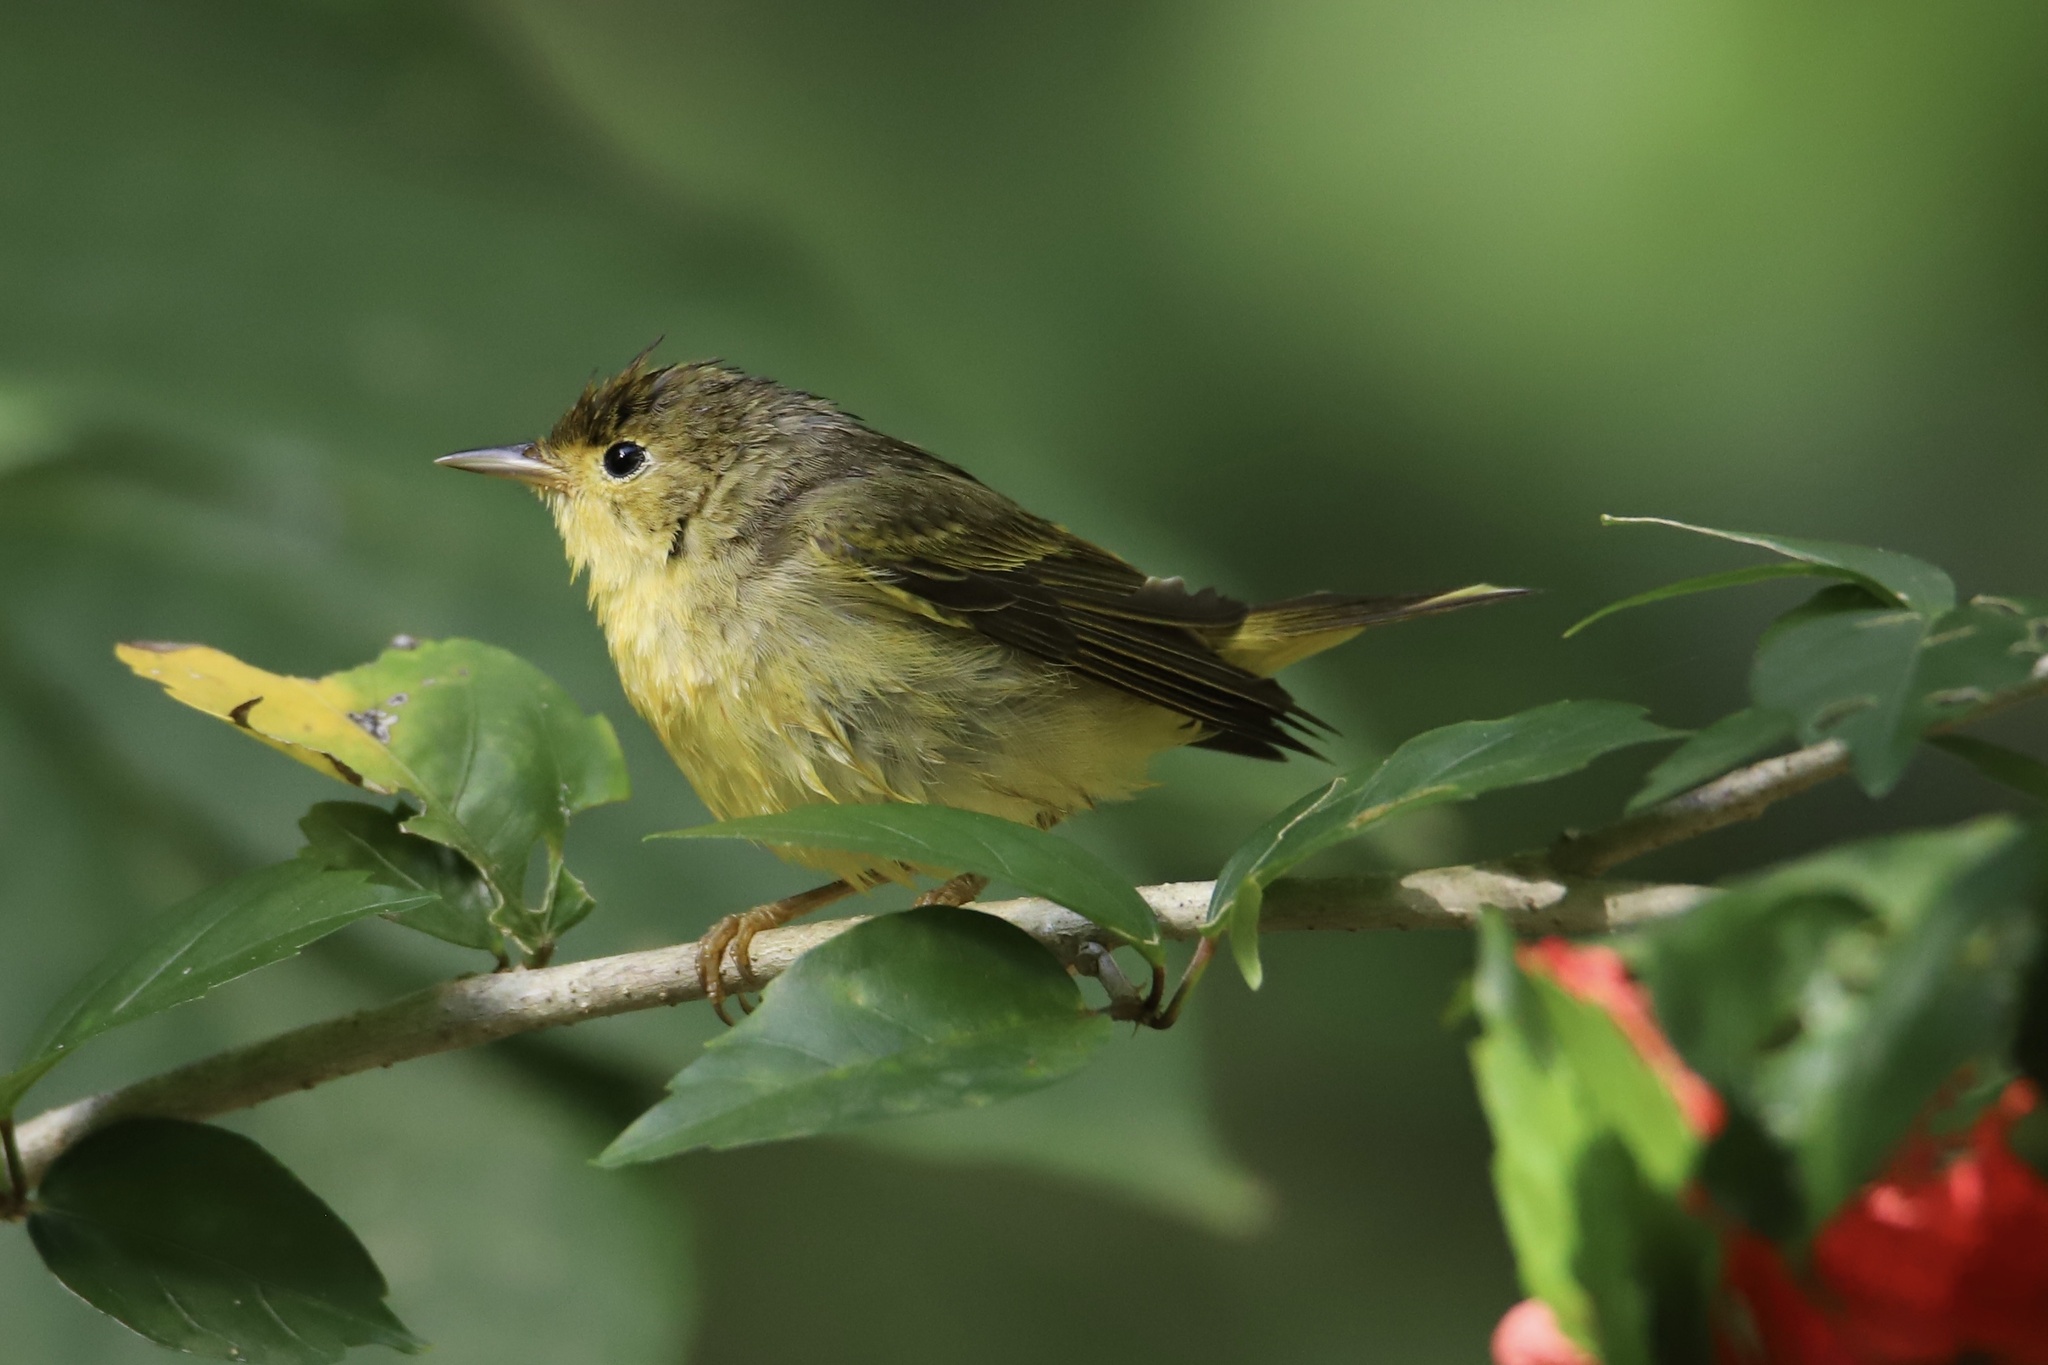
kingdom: Animalia
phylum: Chordata
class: Aves
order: Passeriformes
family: Parulidae
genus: Setophaga
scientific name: Setophaga petechia
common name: Yellow warbler
